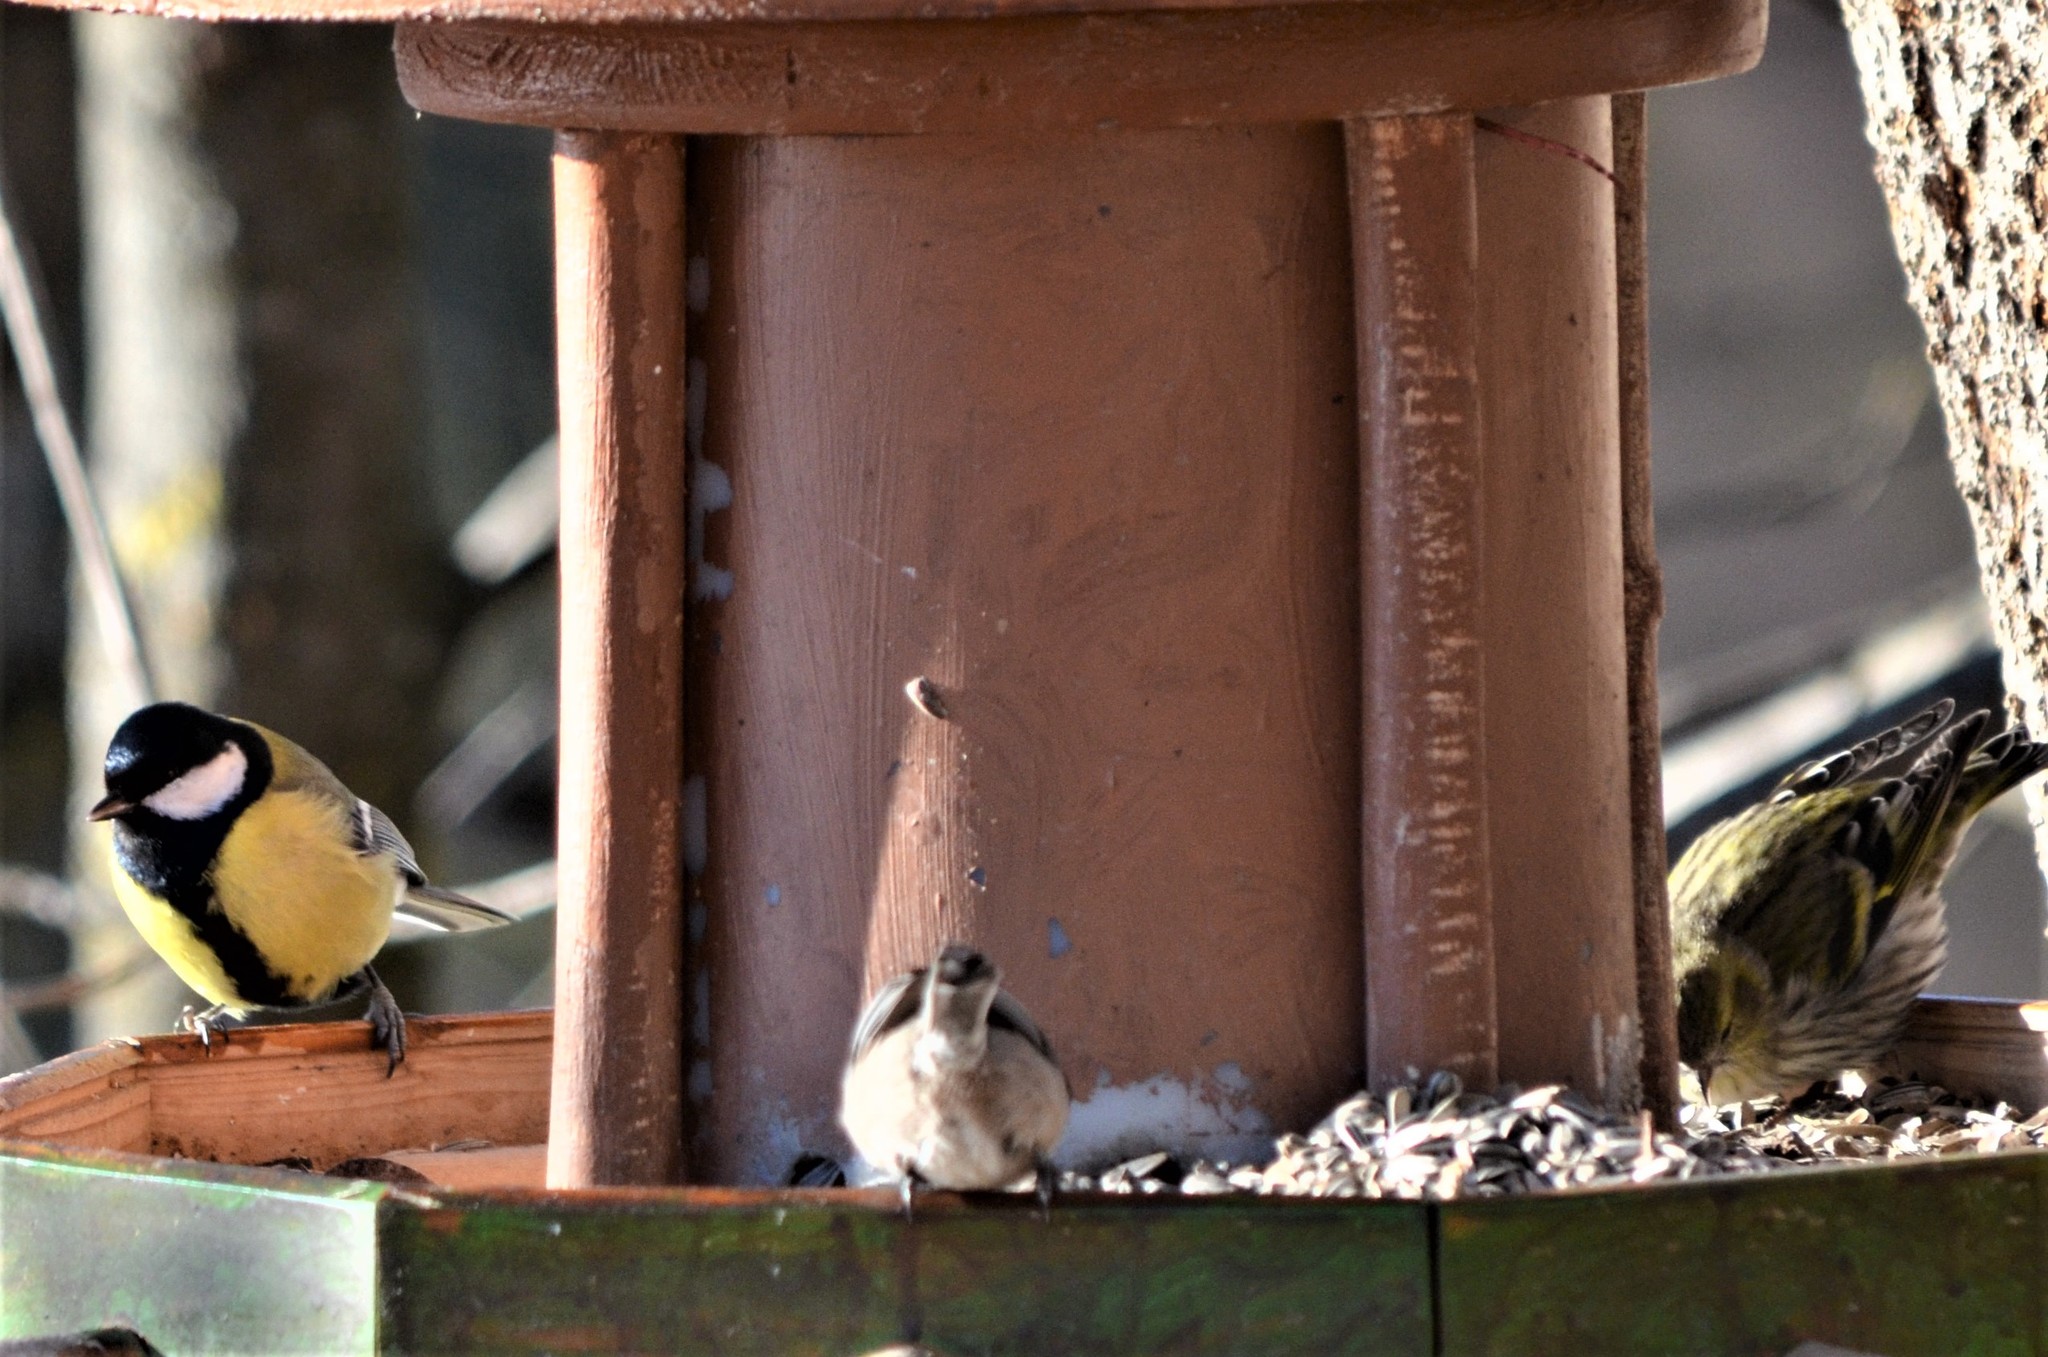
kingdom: Animalia
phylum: Chordata
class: Aves
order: Passeriformes
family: Paridae
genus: Parus
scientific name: Parus major
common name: Great tit
